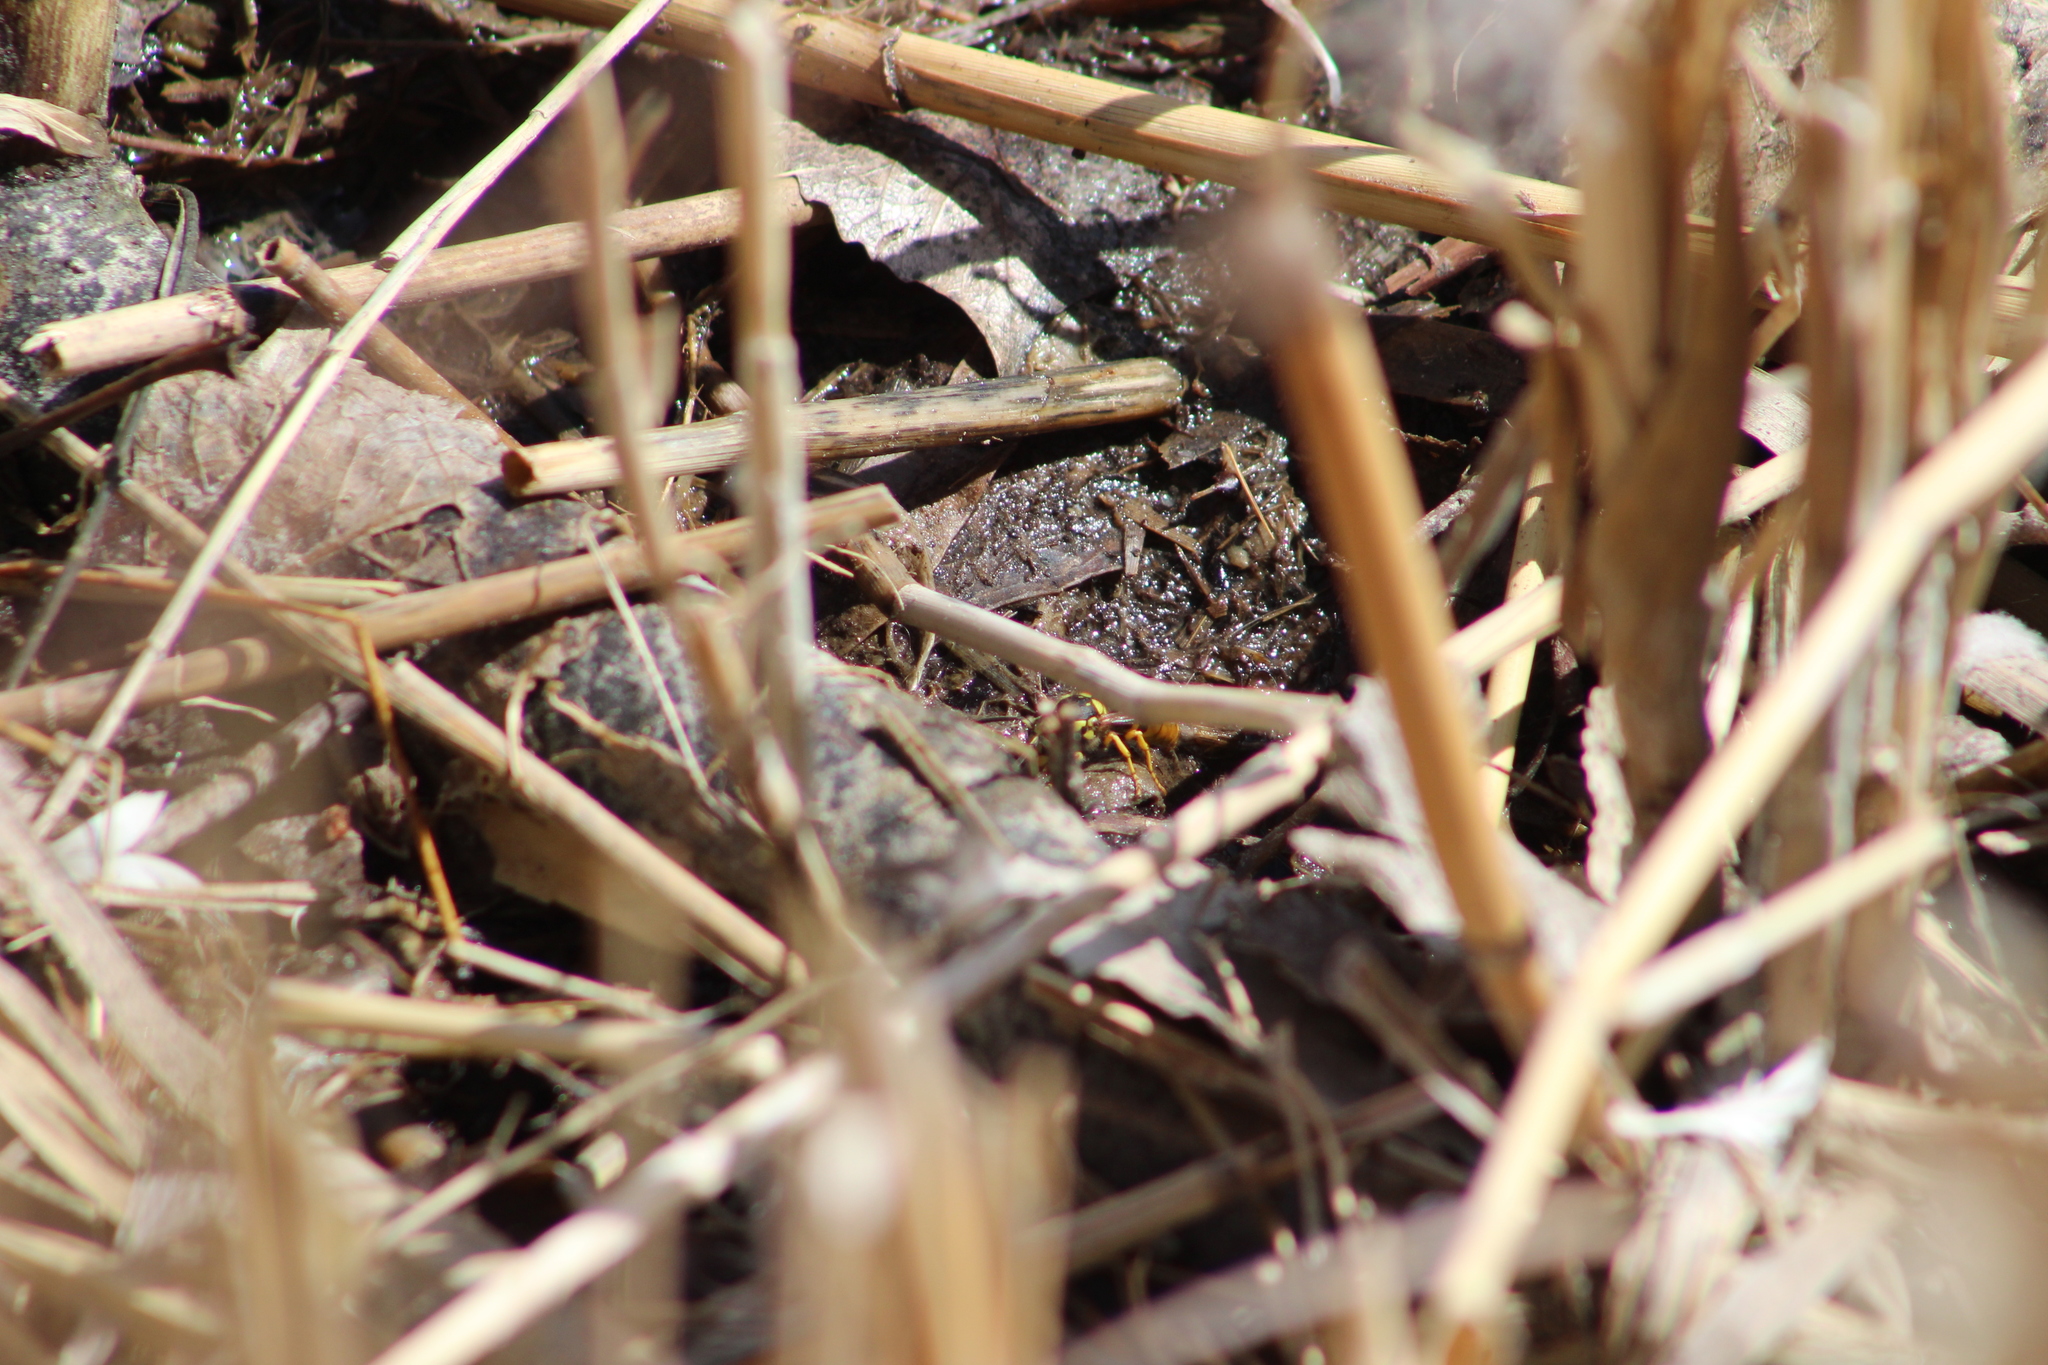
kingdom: Animalia
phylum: Arthropoda
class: Insecta
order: Hymenoptera
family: Vespidae
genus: Vespula
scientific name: Vespula pensylvanica
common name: Western yellowjacket
